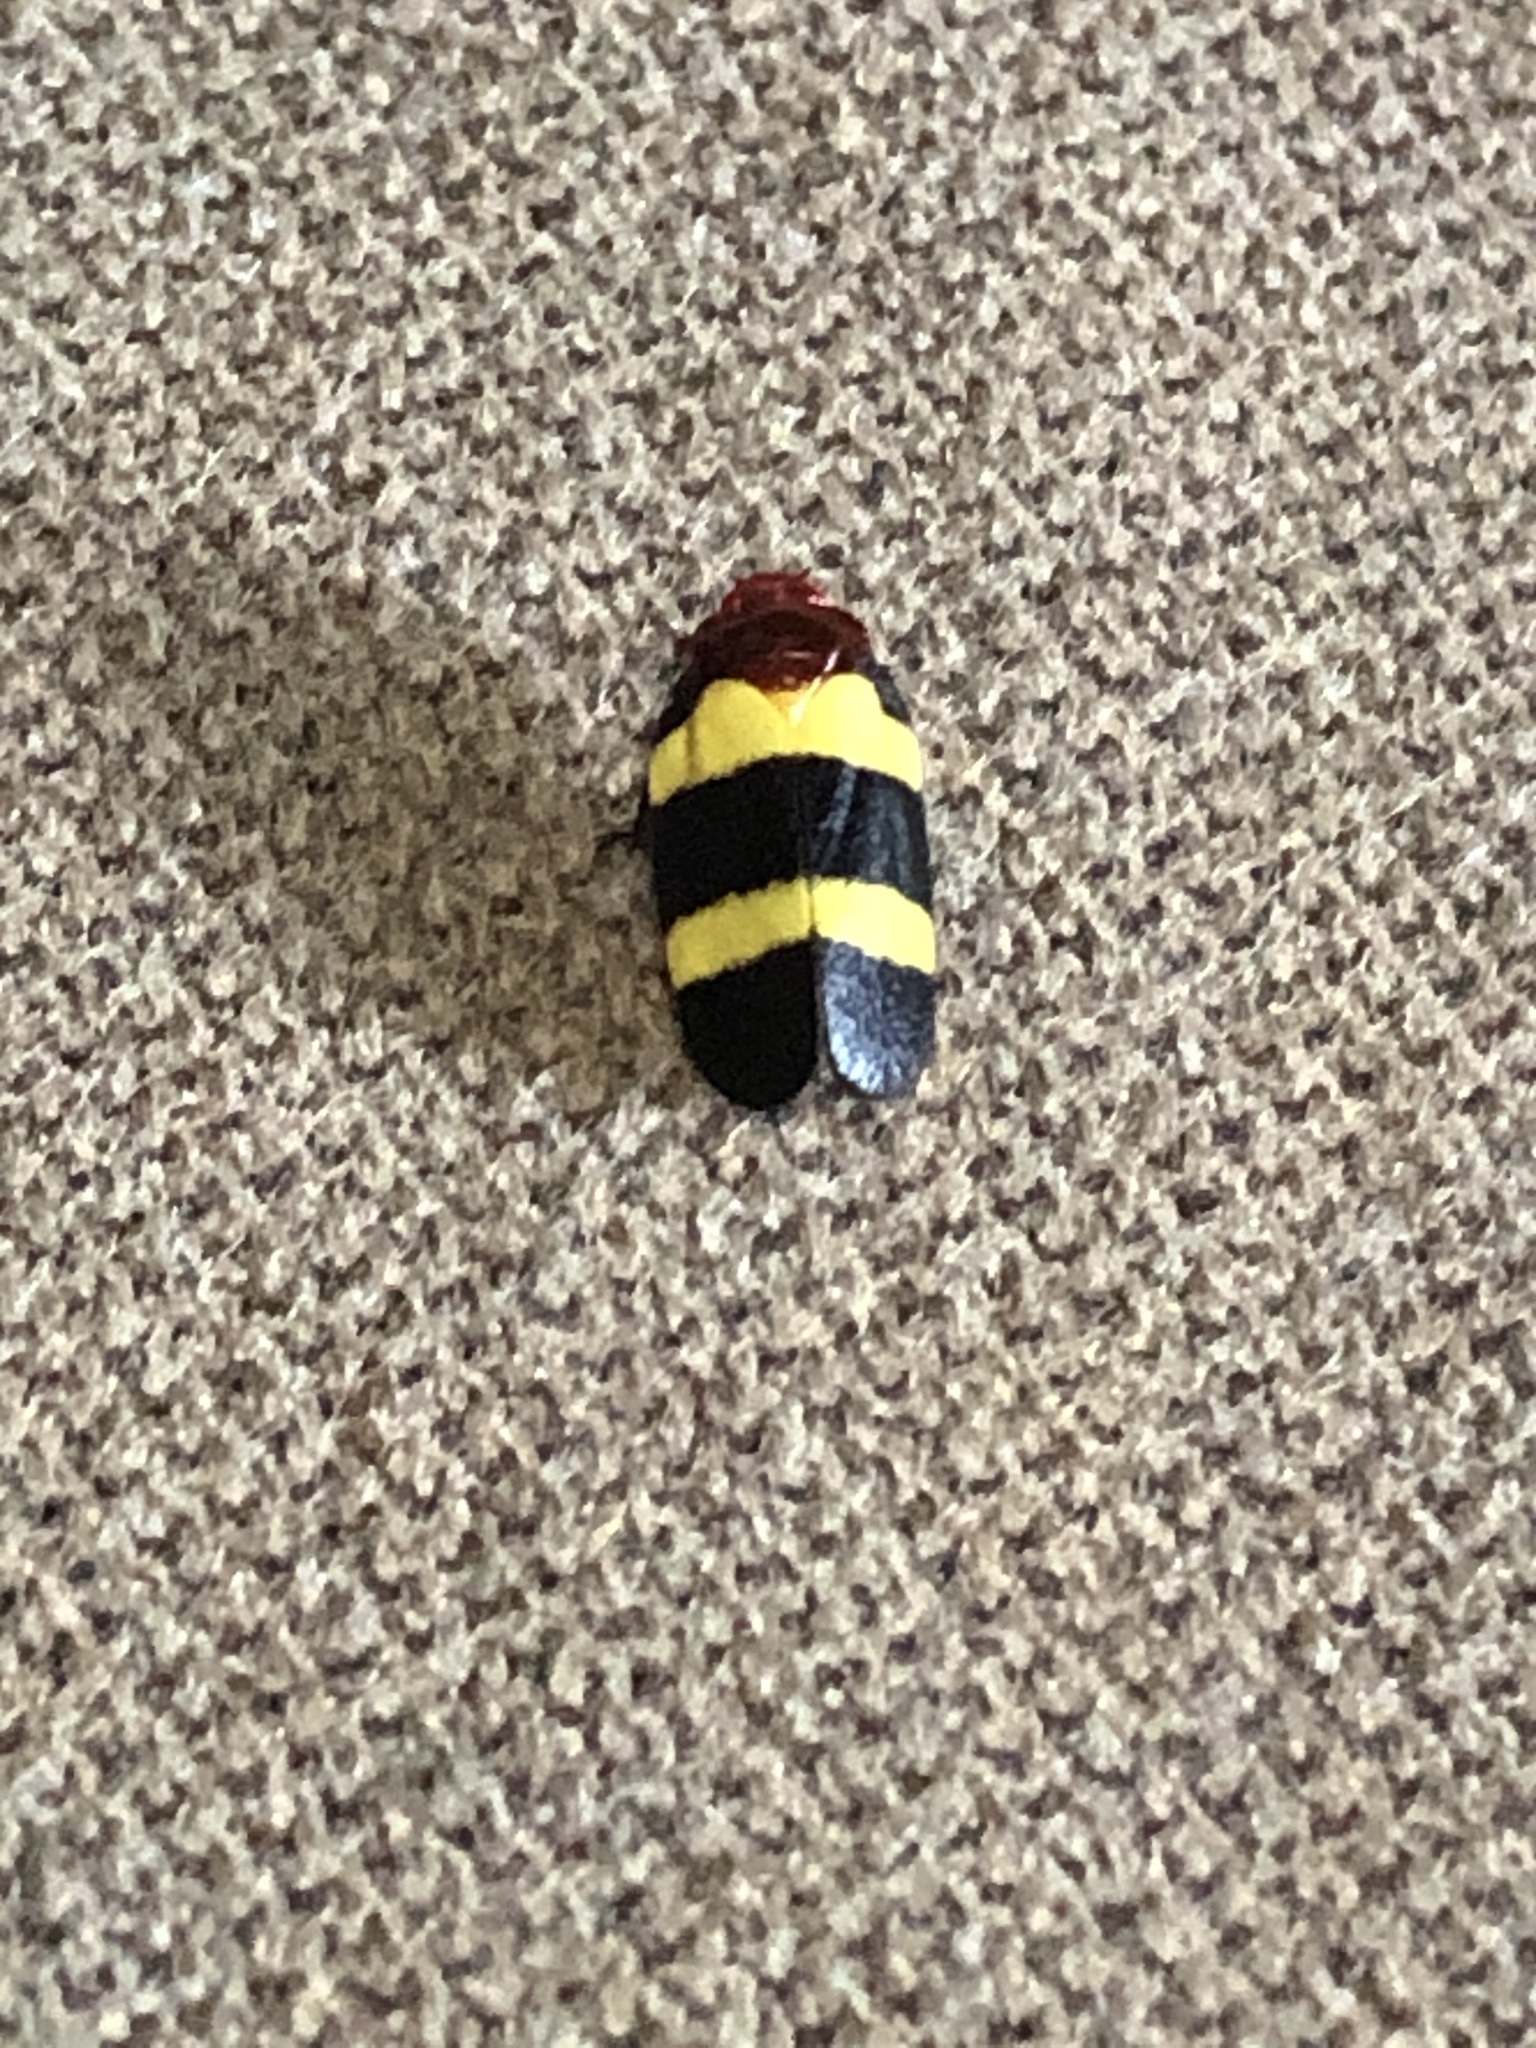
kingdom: Animalia
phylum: Arthropoda
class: Insecta
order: Hemiptera
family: Cercopidae
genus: Sphenorhina
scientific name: Sphenorhina rubra
